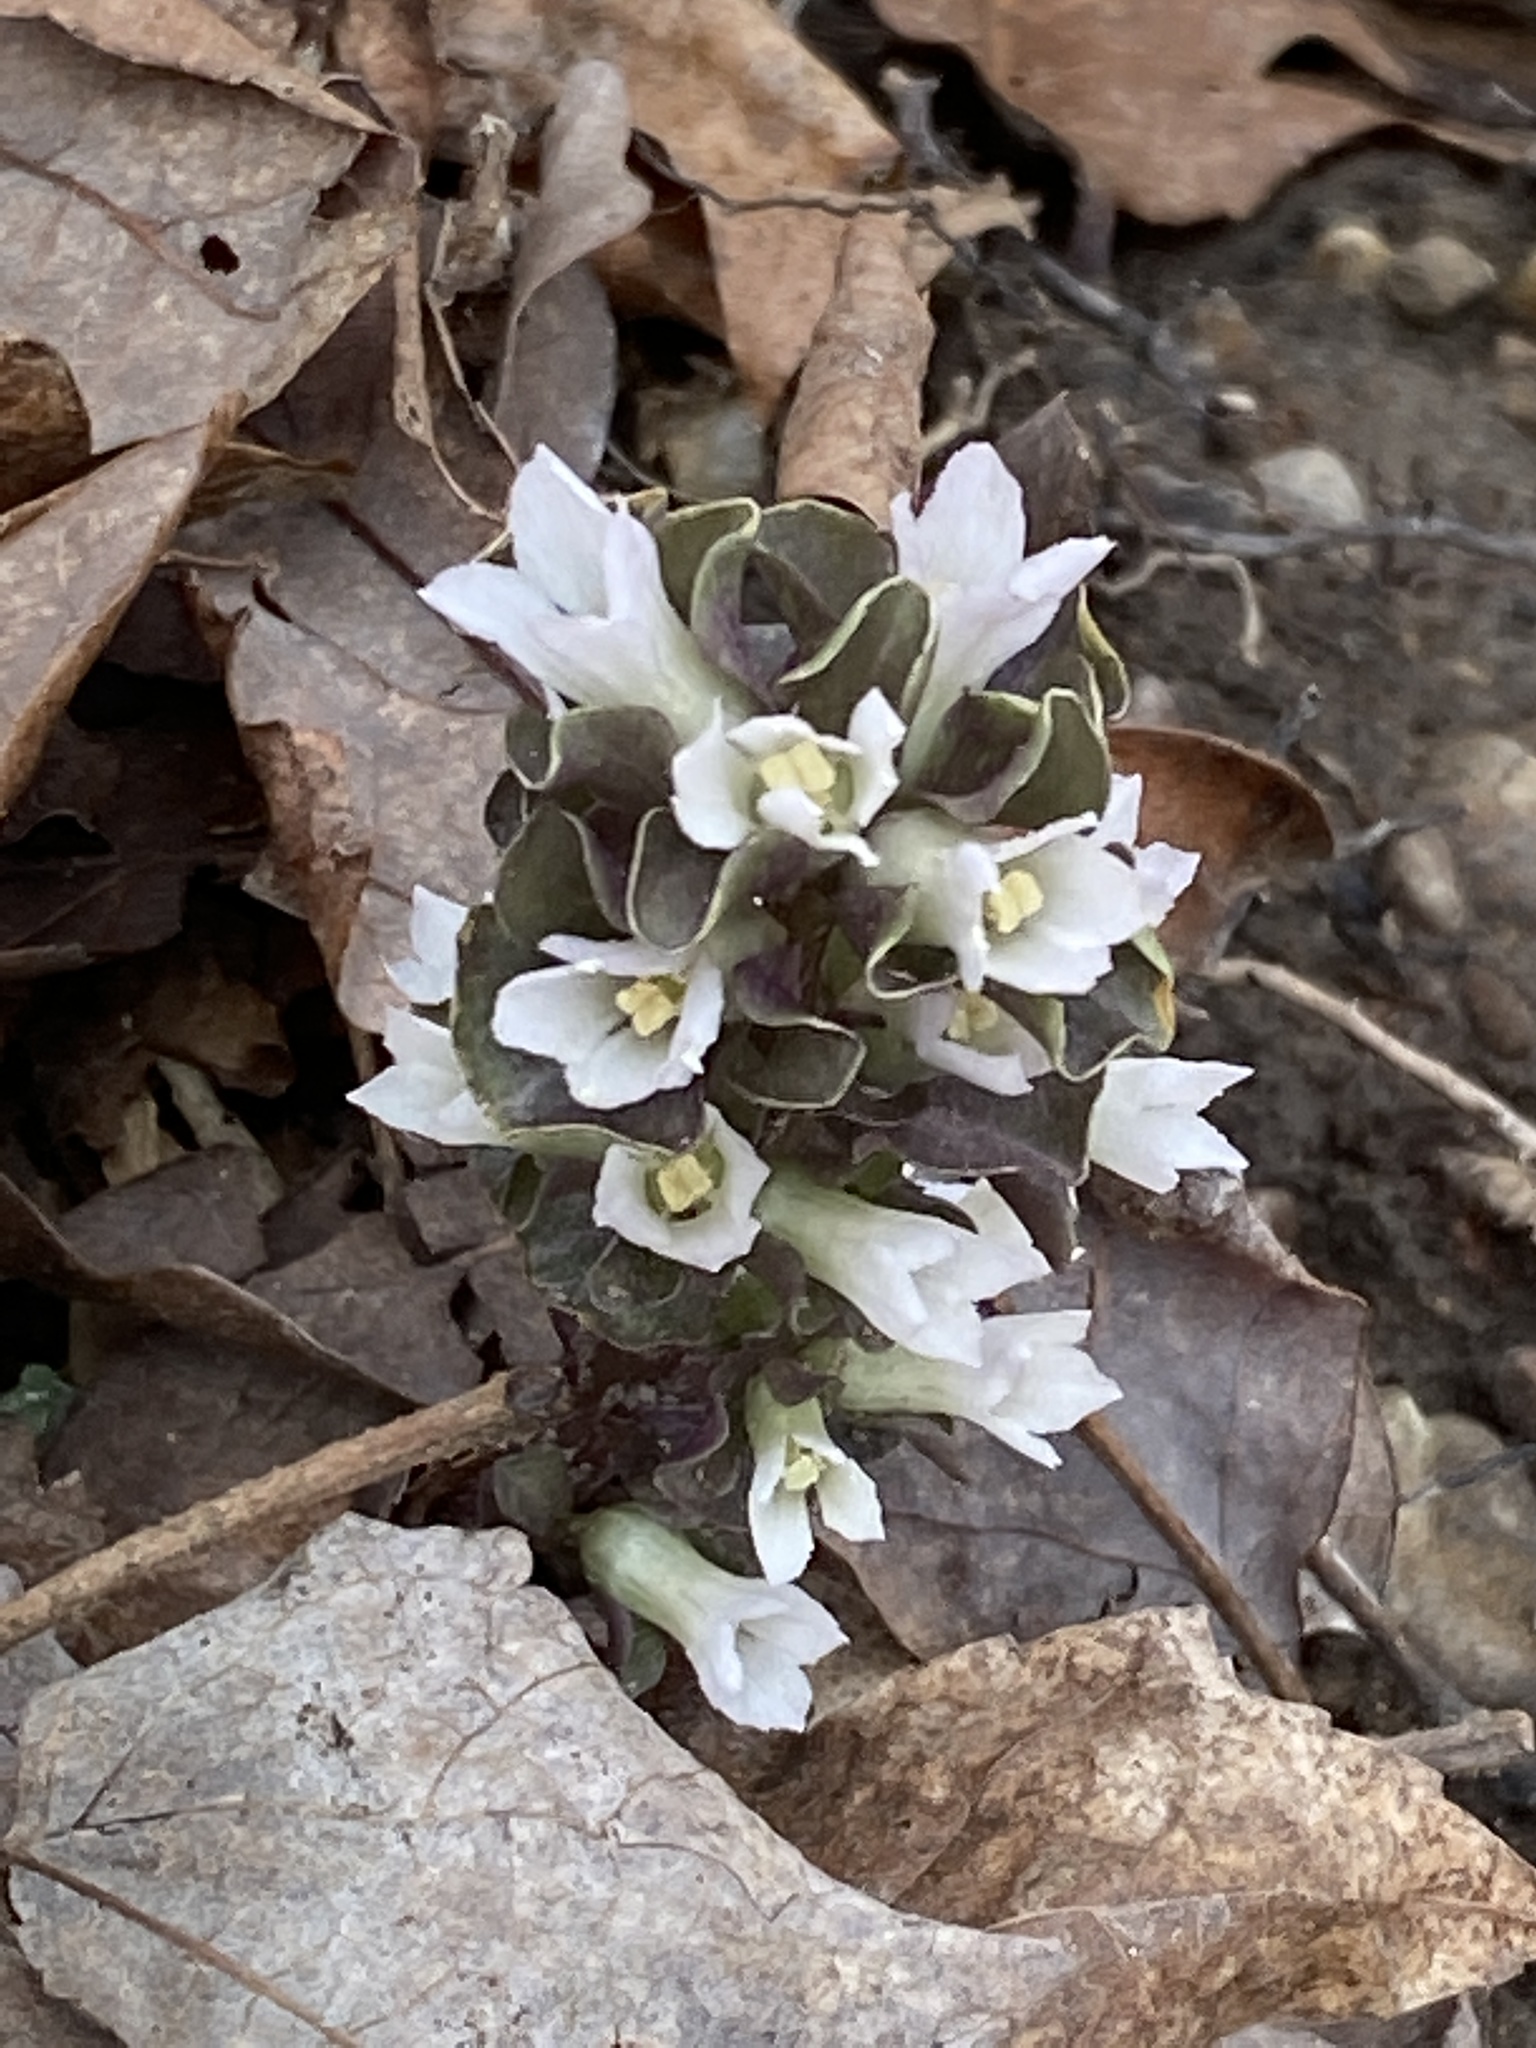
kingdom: Plantae
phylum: Tracheophyta
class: Magnoliopsida
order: Gentianales
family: Gentianaceae
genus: Obolaria
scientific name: Obolaria virginica
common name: Pennywort
